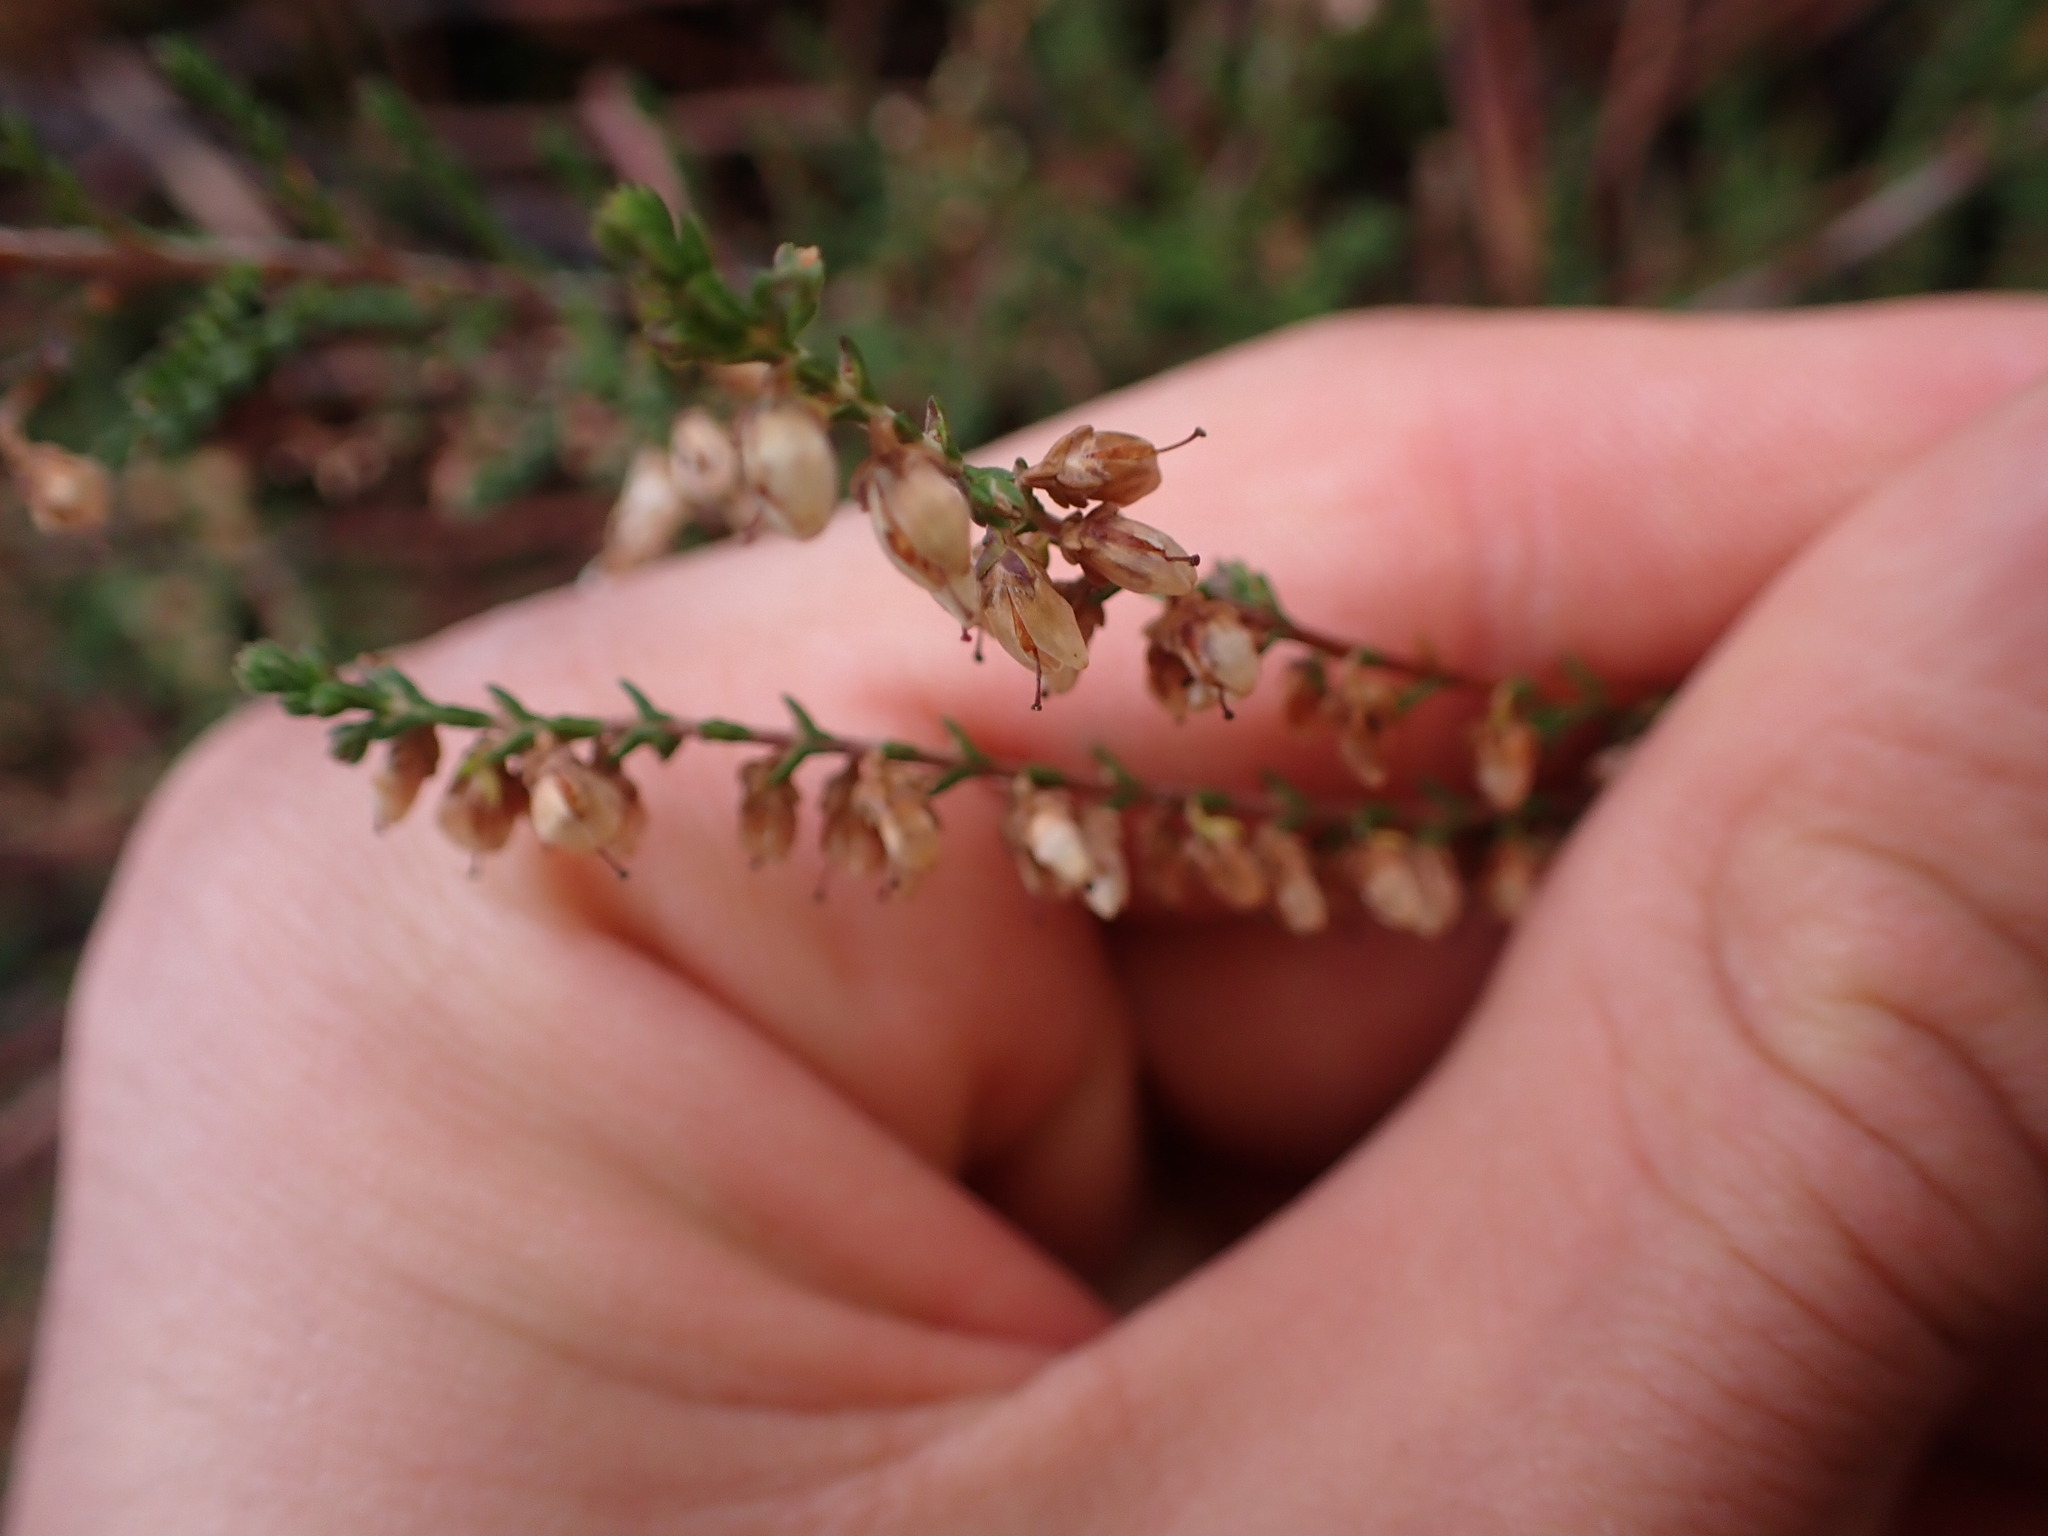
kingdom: Plantae
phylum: Tracheophyta
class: Magnoliopsida
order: Ericales
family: Ericaceae
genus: Calluna
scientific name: Calluna vulgaris
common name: Heather
